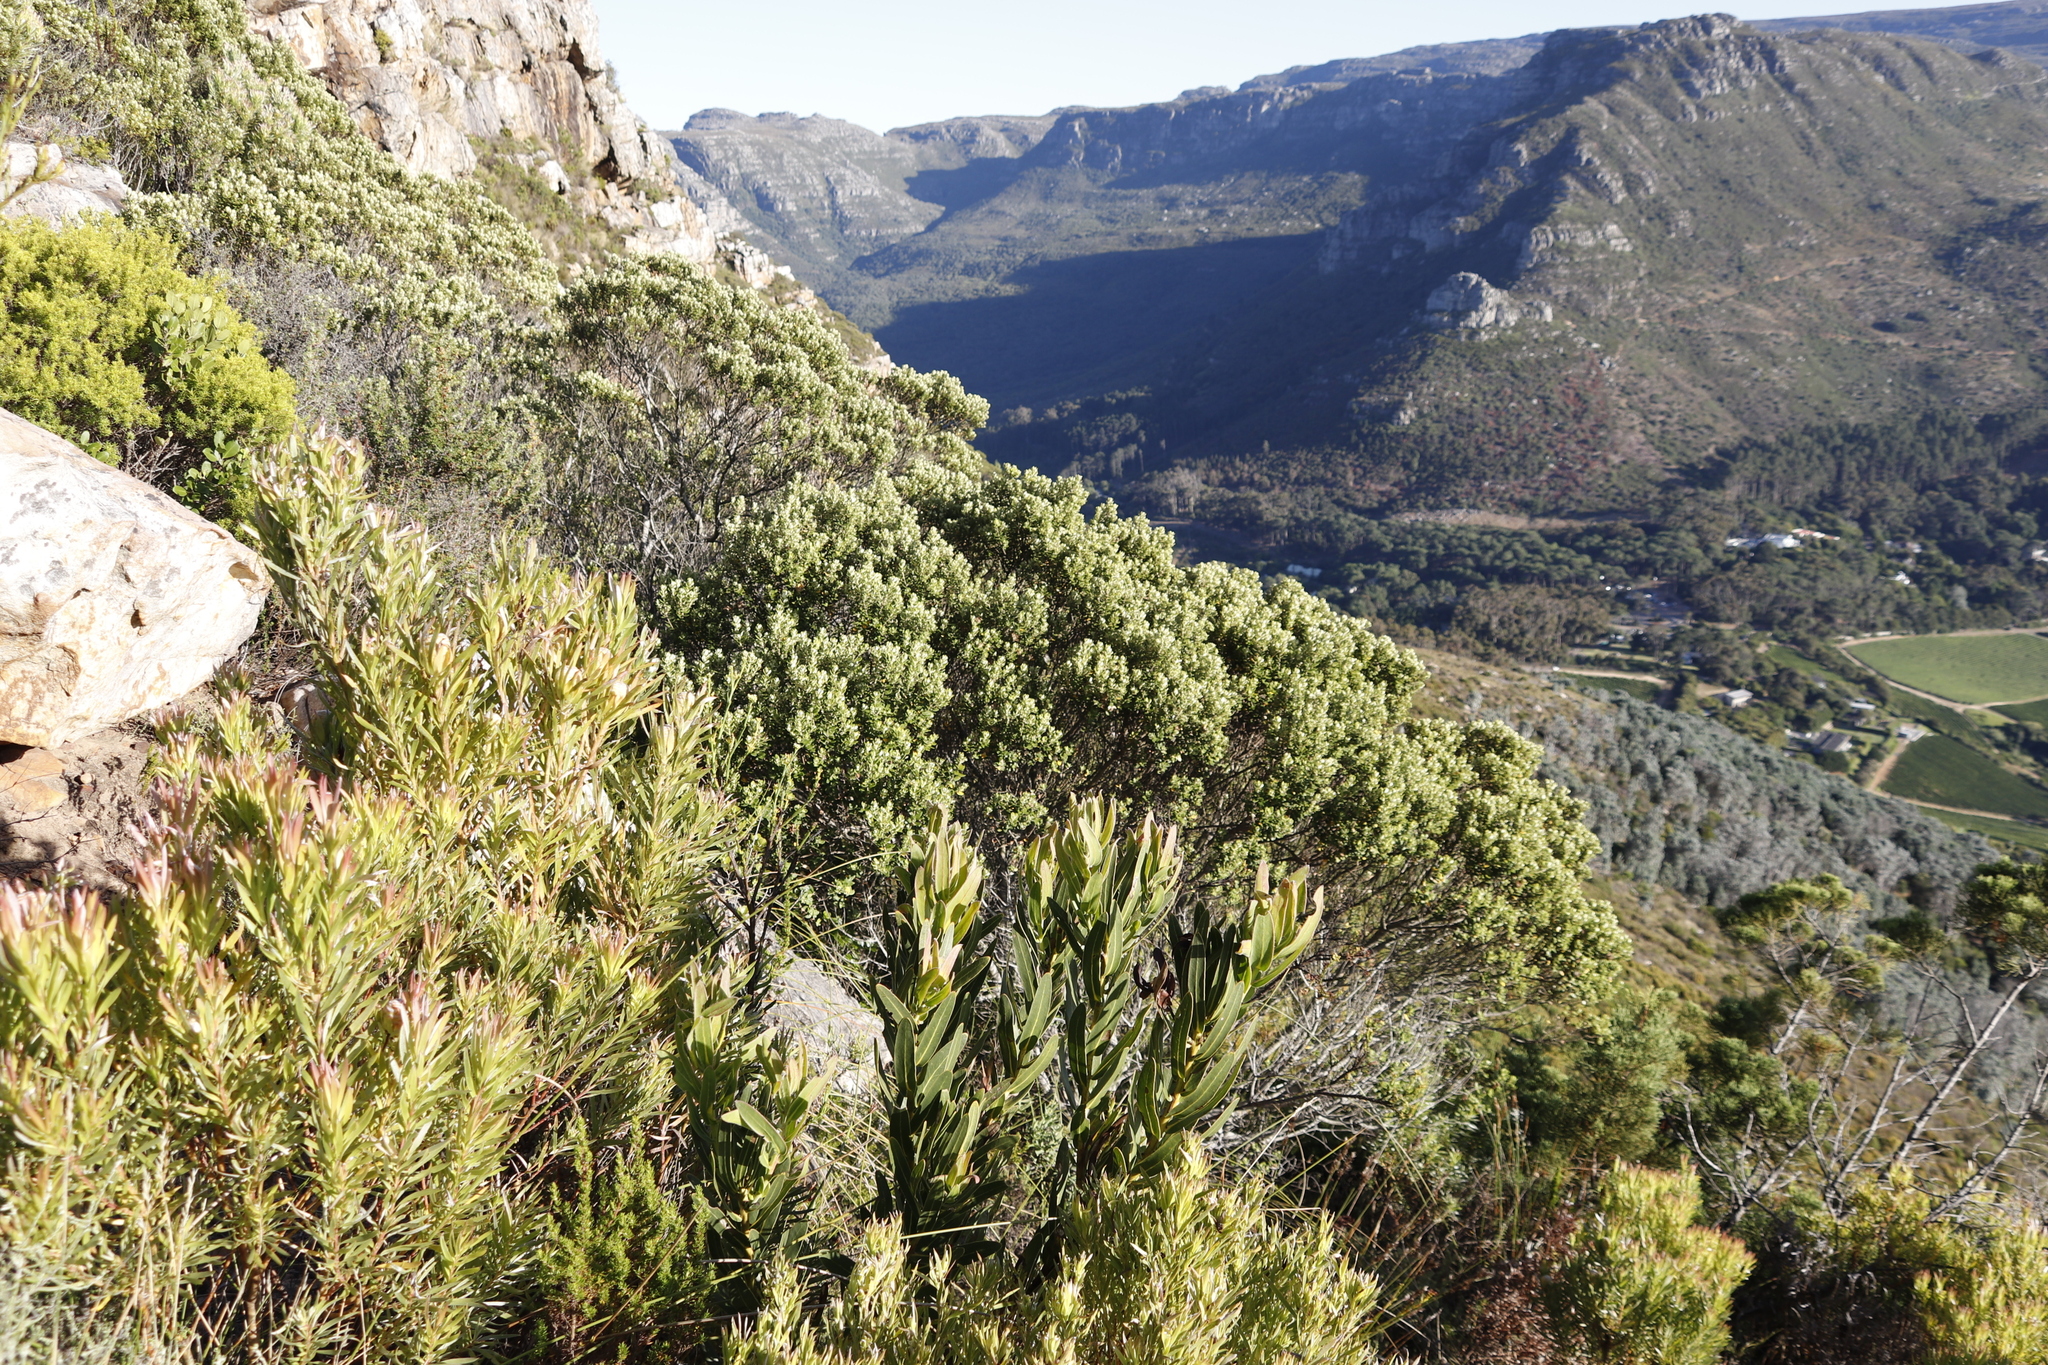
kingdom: Plantae
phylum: Tracheophyta
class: Magnoliopsida
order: Rosales
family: Rhamnaceae
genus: Phylica
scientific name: Phylica buxifolia
